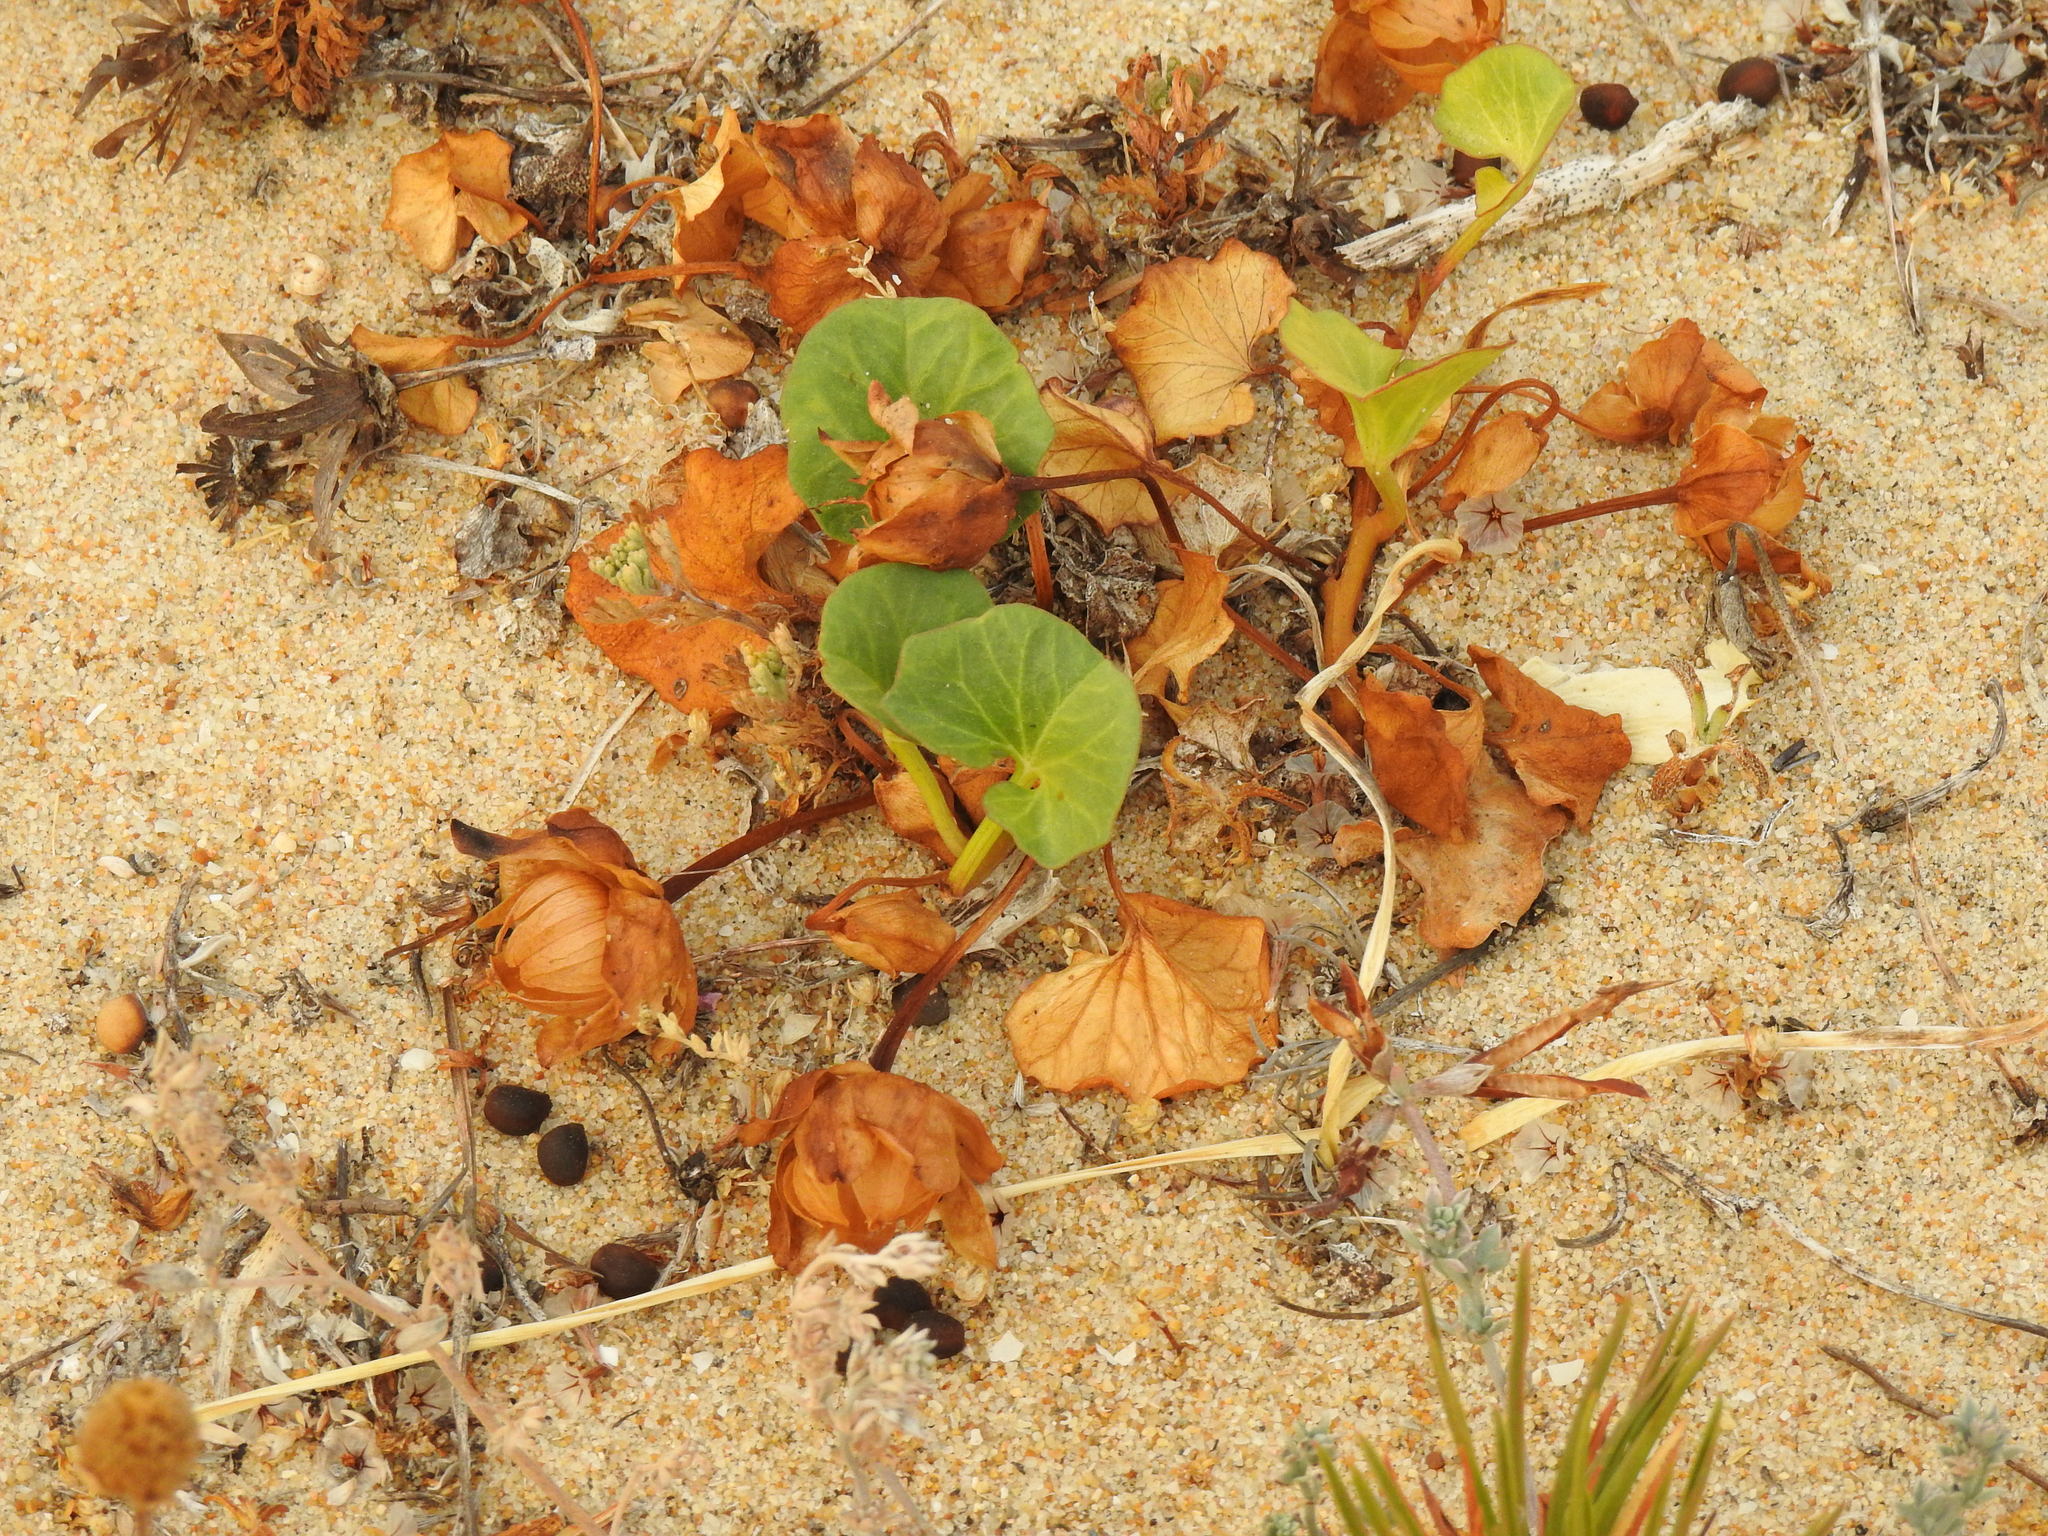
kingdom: Plantae
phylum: Tracheophyta
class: Magnoliopsida
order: Solanales
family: Convolvulaceae
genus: Calystegia
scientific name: Calystegia soldanella
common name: Sea bindweed
